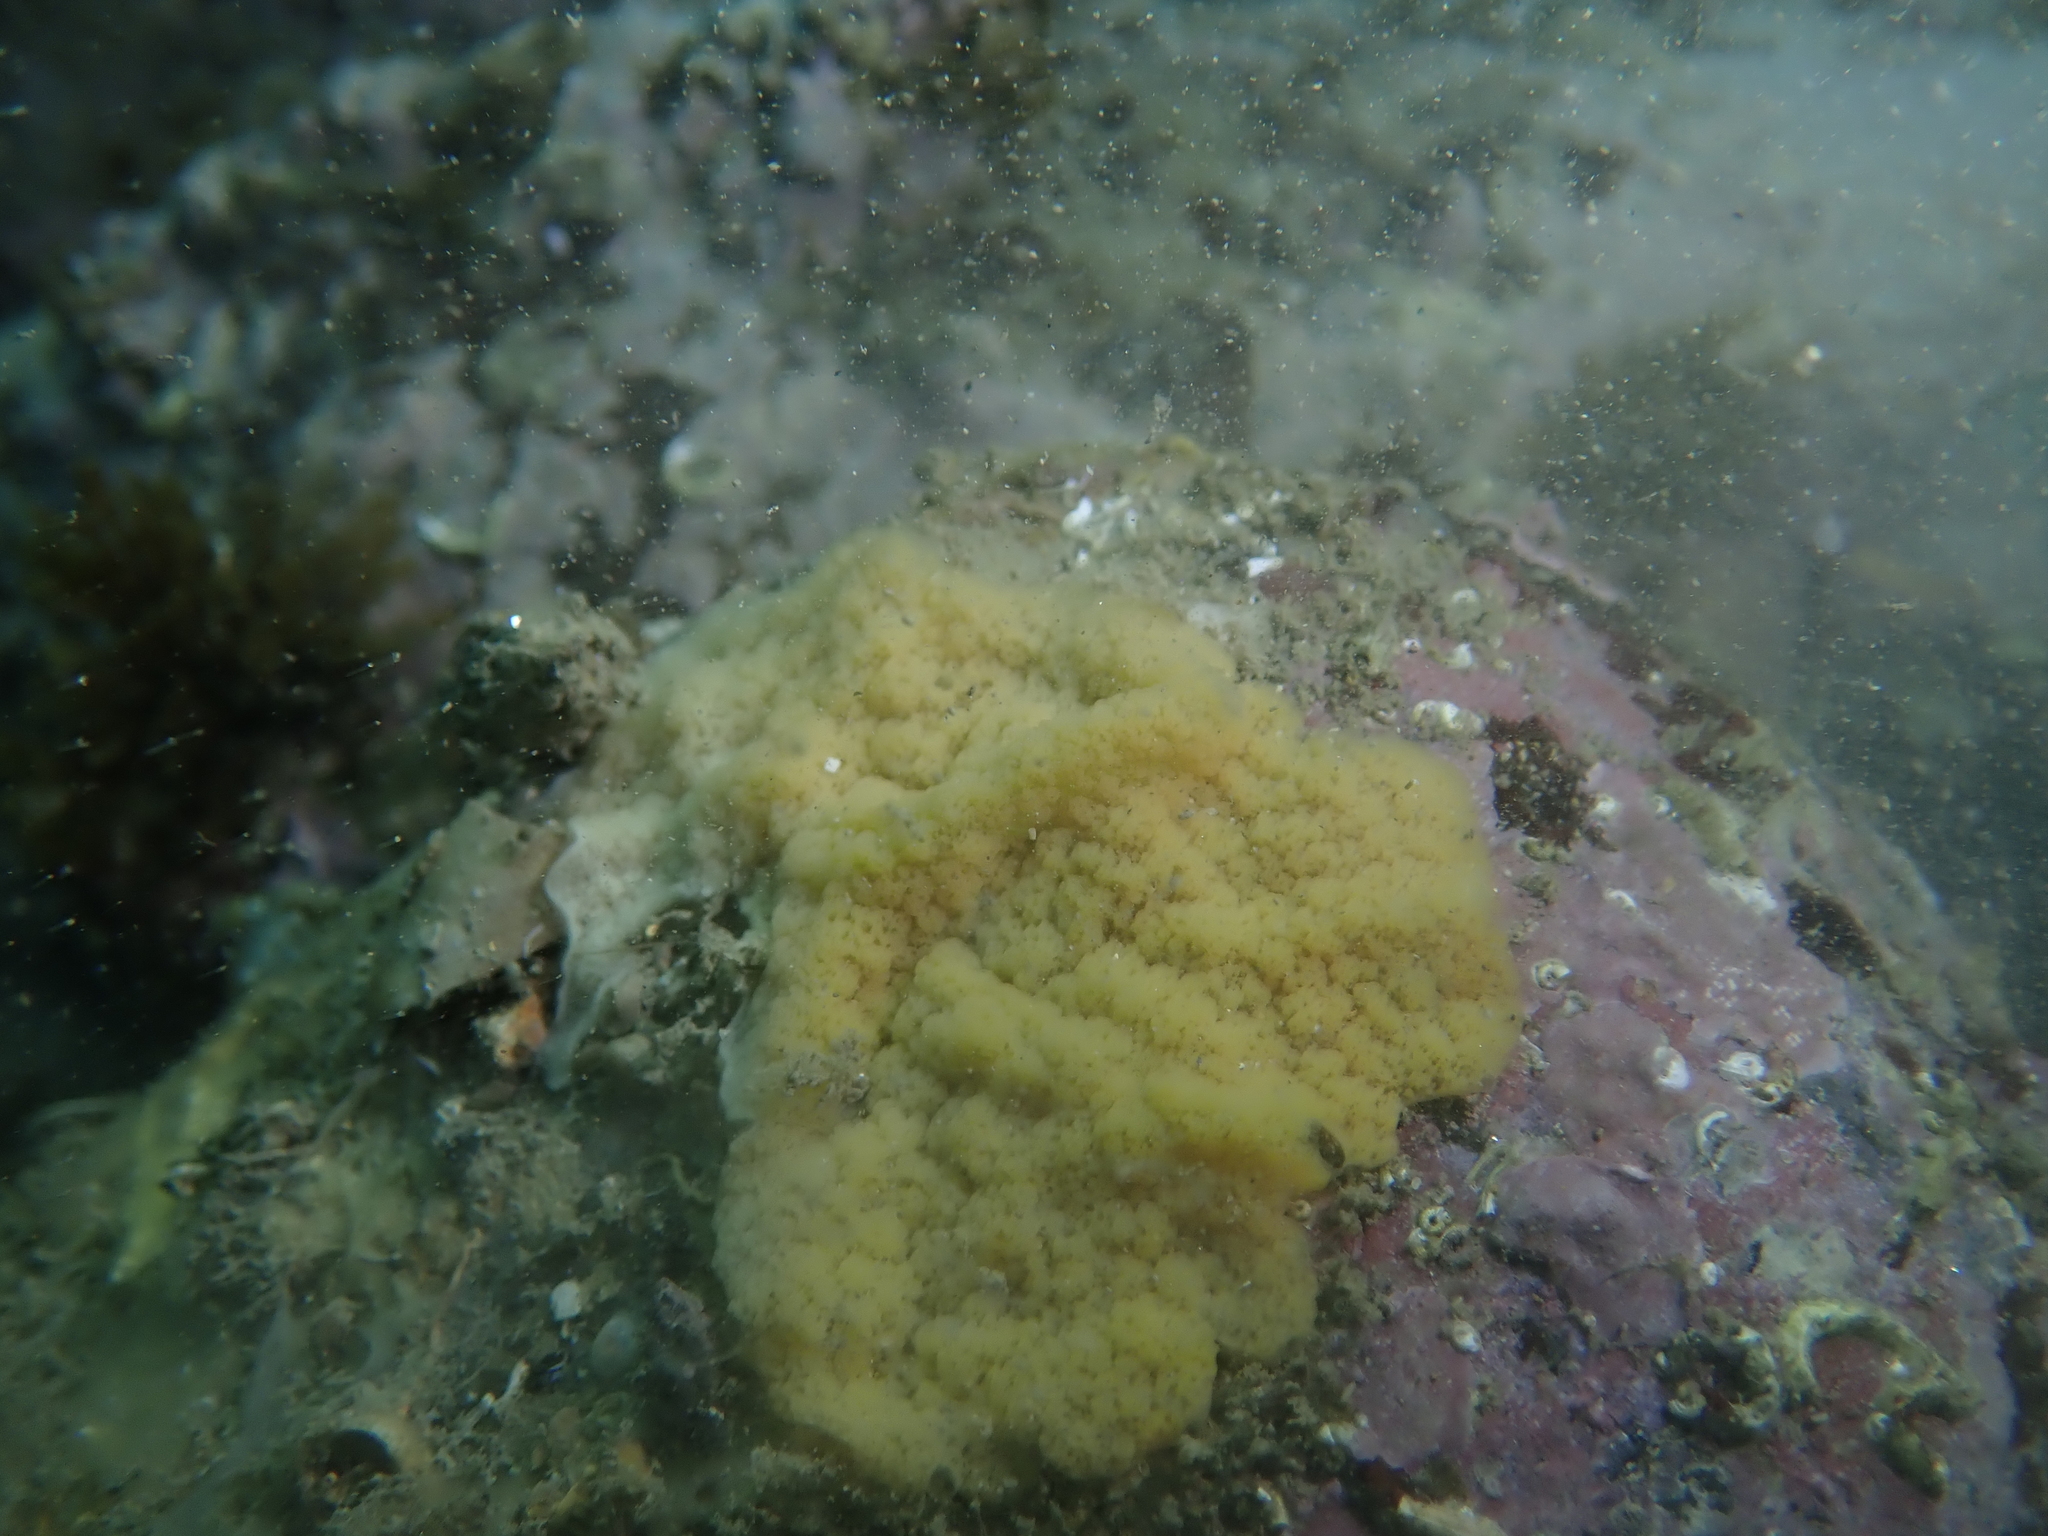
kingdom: Animalia
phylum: Porifera
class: Homoscleromorpha
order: Homosclerophorida
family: Plakinidae
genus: Plakina
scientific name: Plakina monolopha
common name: Simple-rayed membrane sponge
